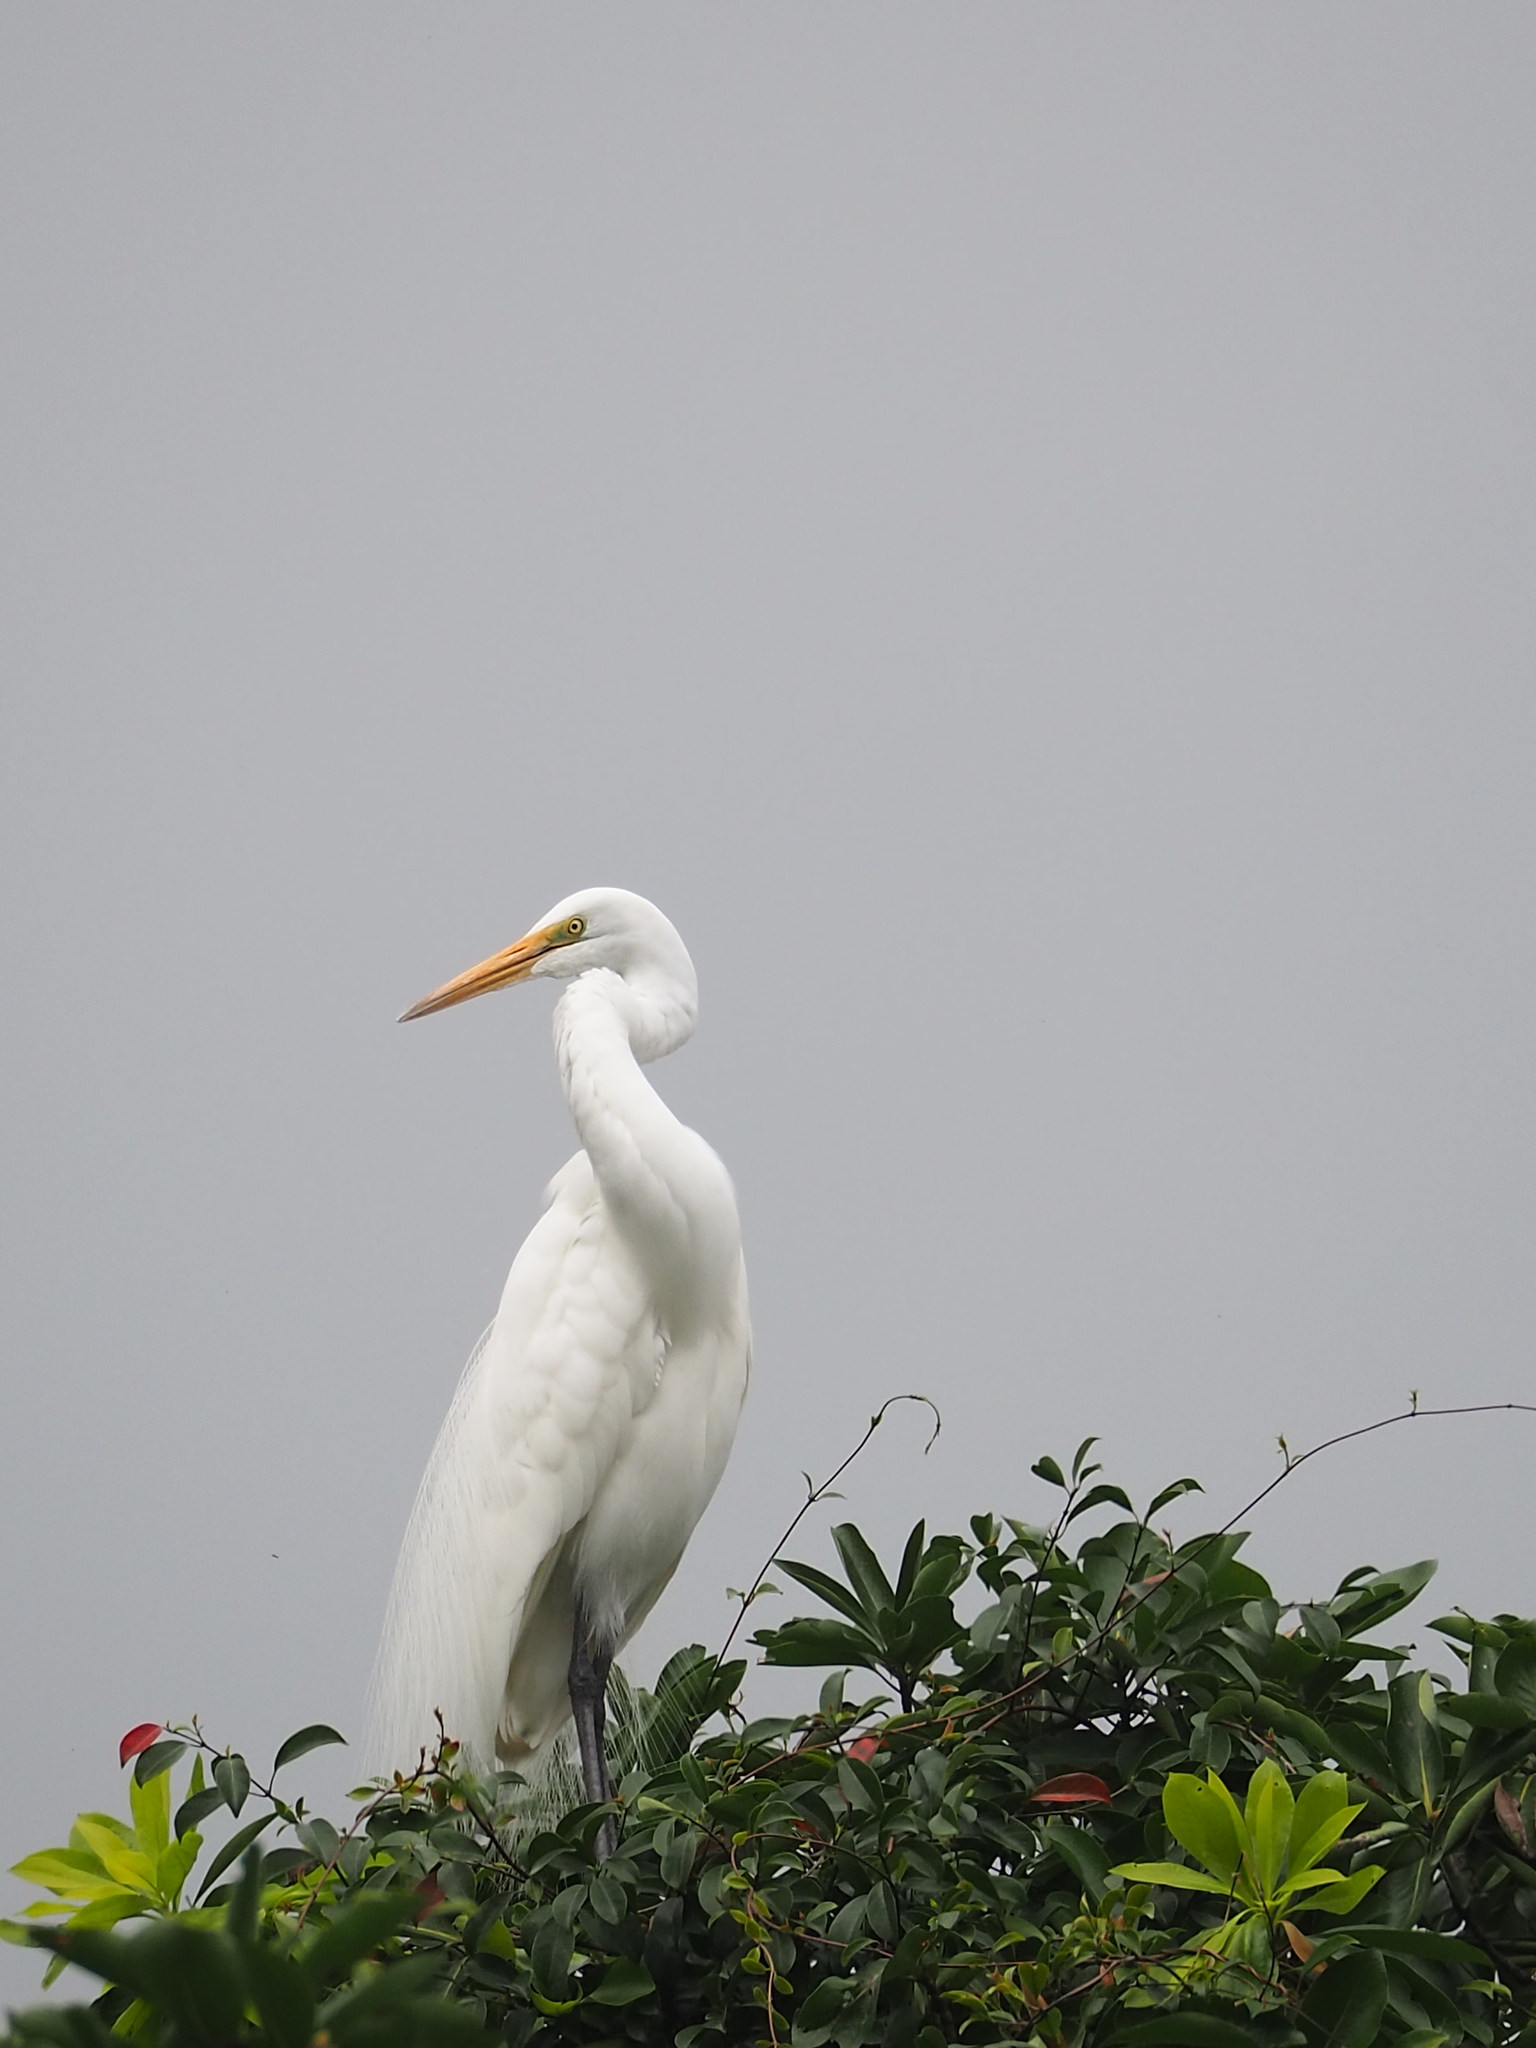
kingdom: Animalia
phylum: Chordata
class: Aves
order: Pelecaniformes
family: Ardeidae
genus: Ardea
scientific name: Ardea modesta
